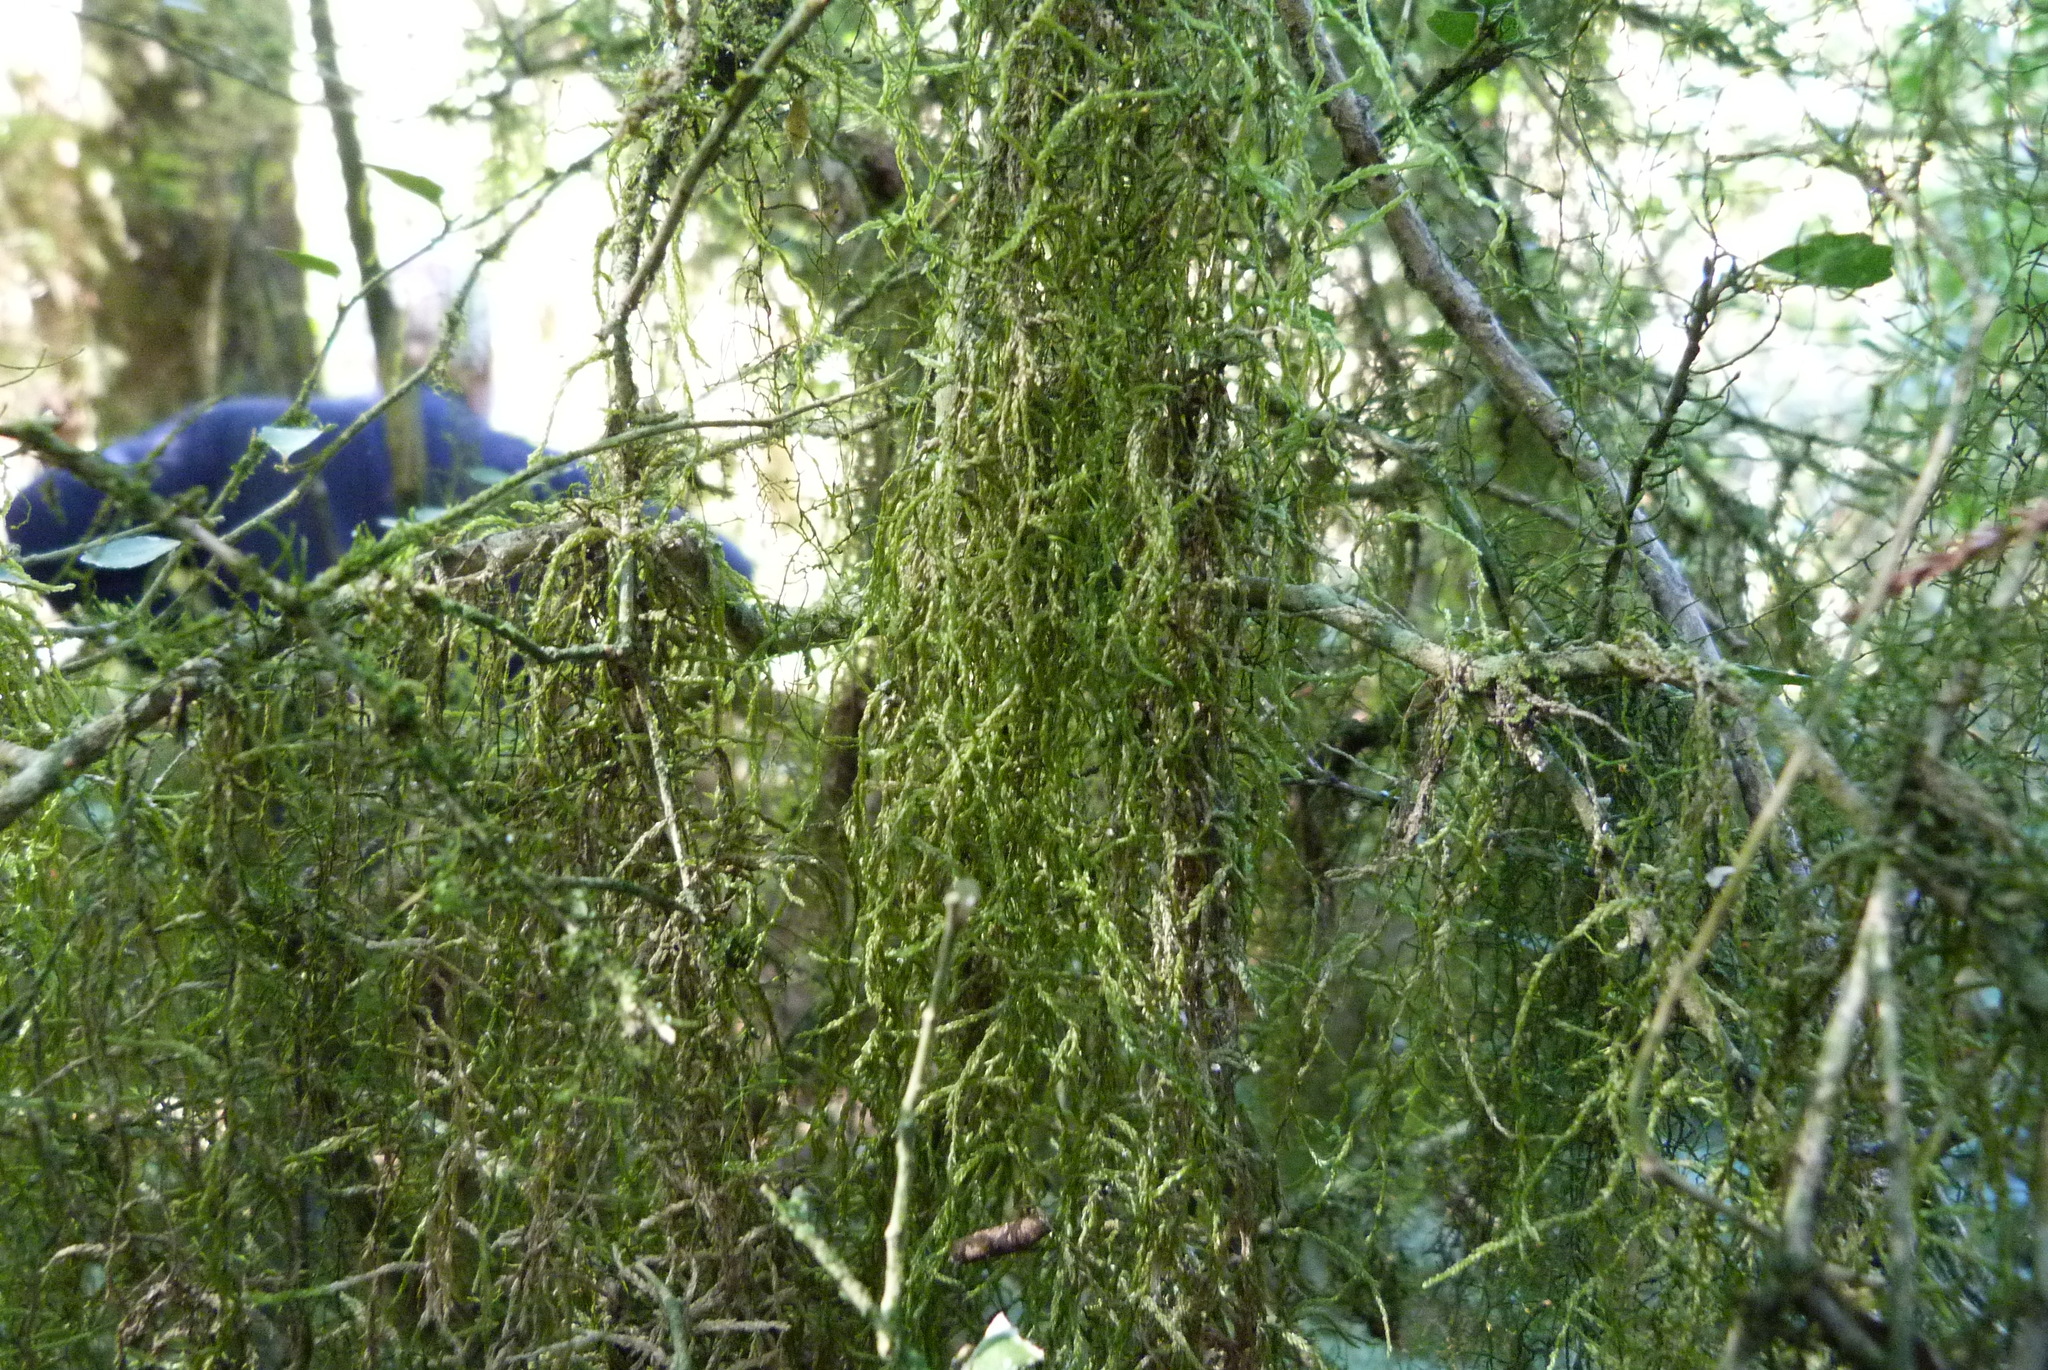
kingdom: Plantae
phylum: Bryophyta
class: Bryopsida
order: Hypnales
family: Lembophyllaceae
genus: Weymouthia
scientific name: Weymouthia mollis
